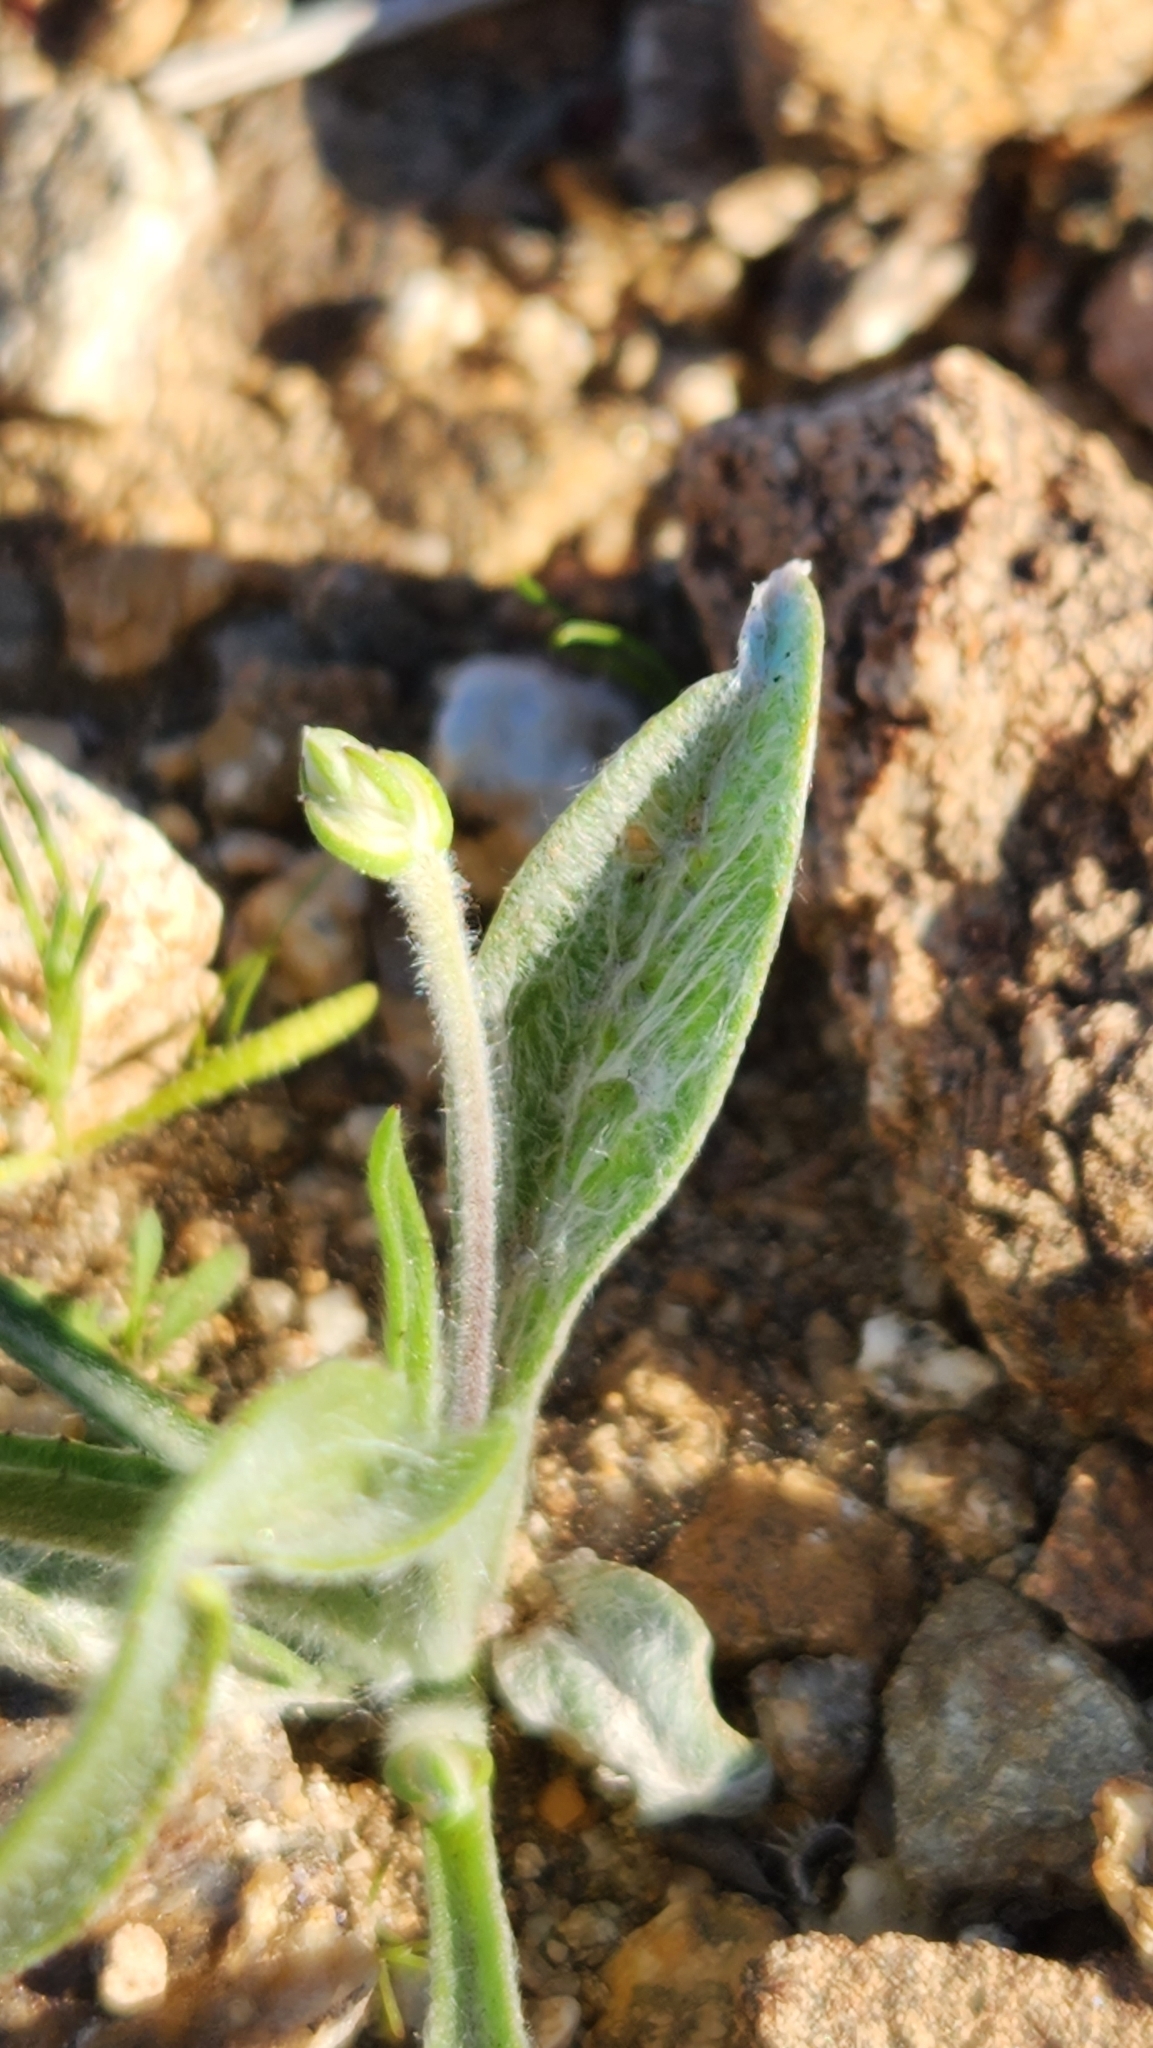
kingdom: Plantae
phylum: Tracheophyta
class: Magnoliopsida
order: Lamiales
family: Plantaginaceae
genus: Plantago
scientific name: Plantago ovata
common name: Blond plantain
